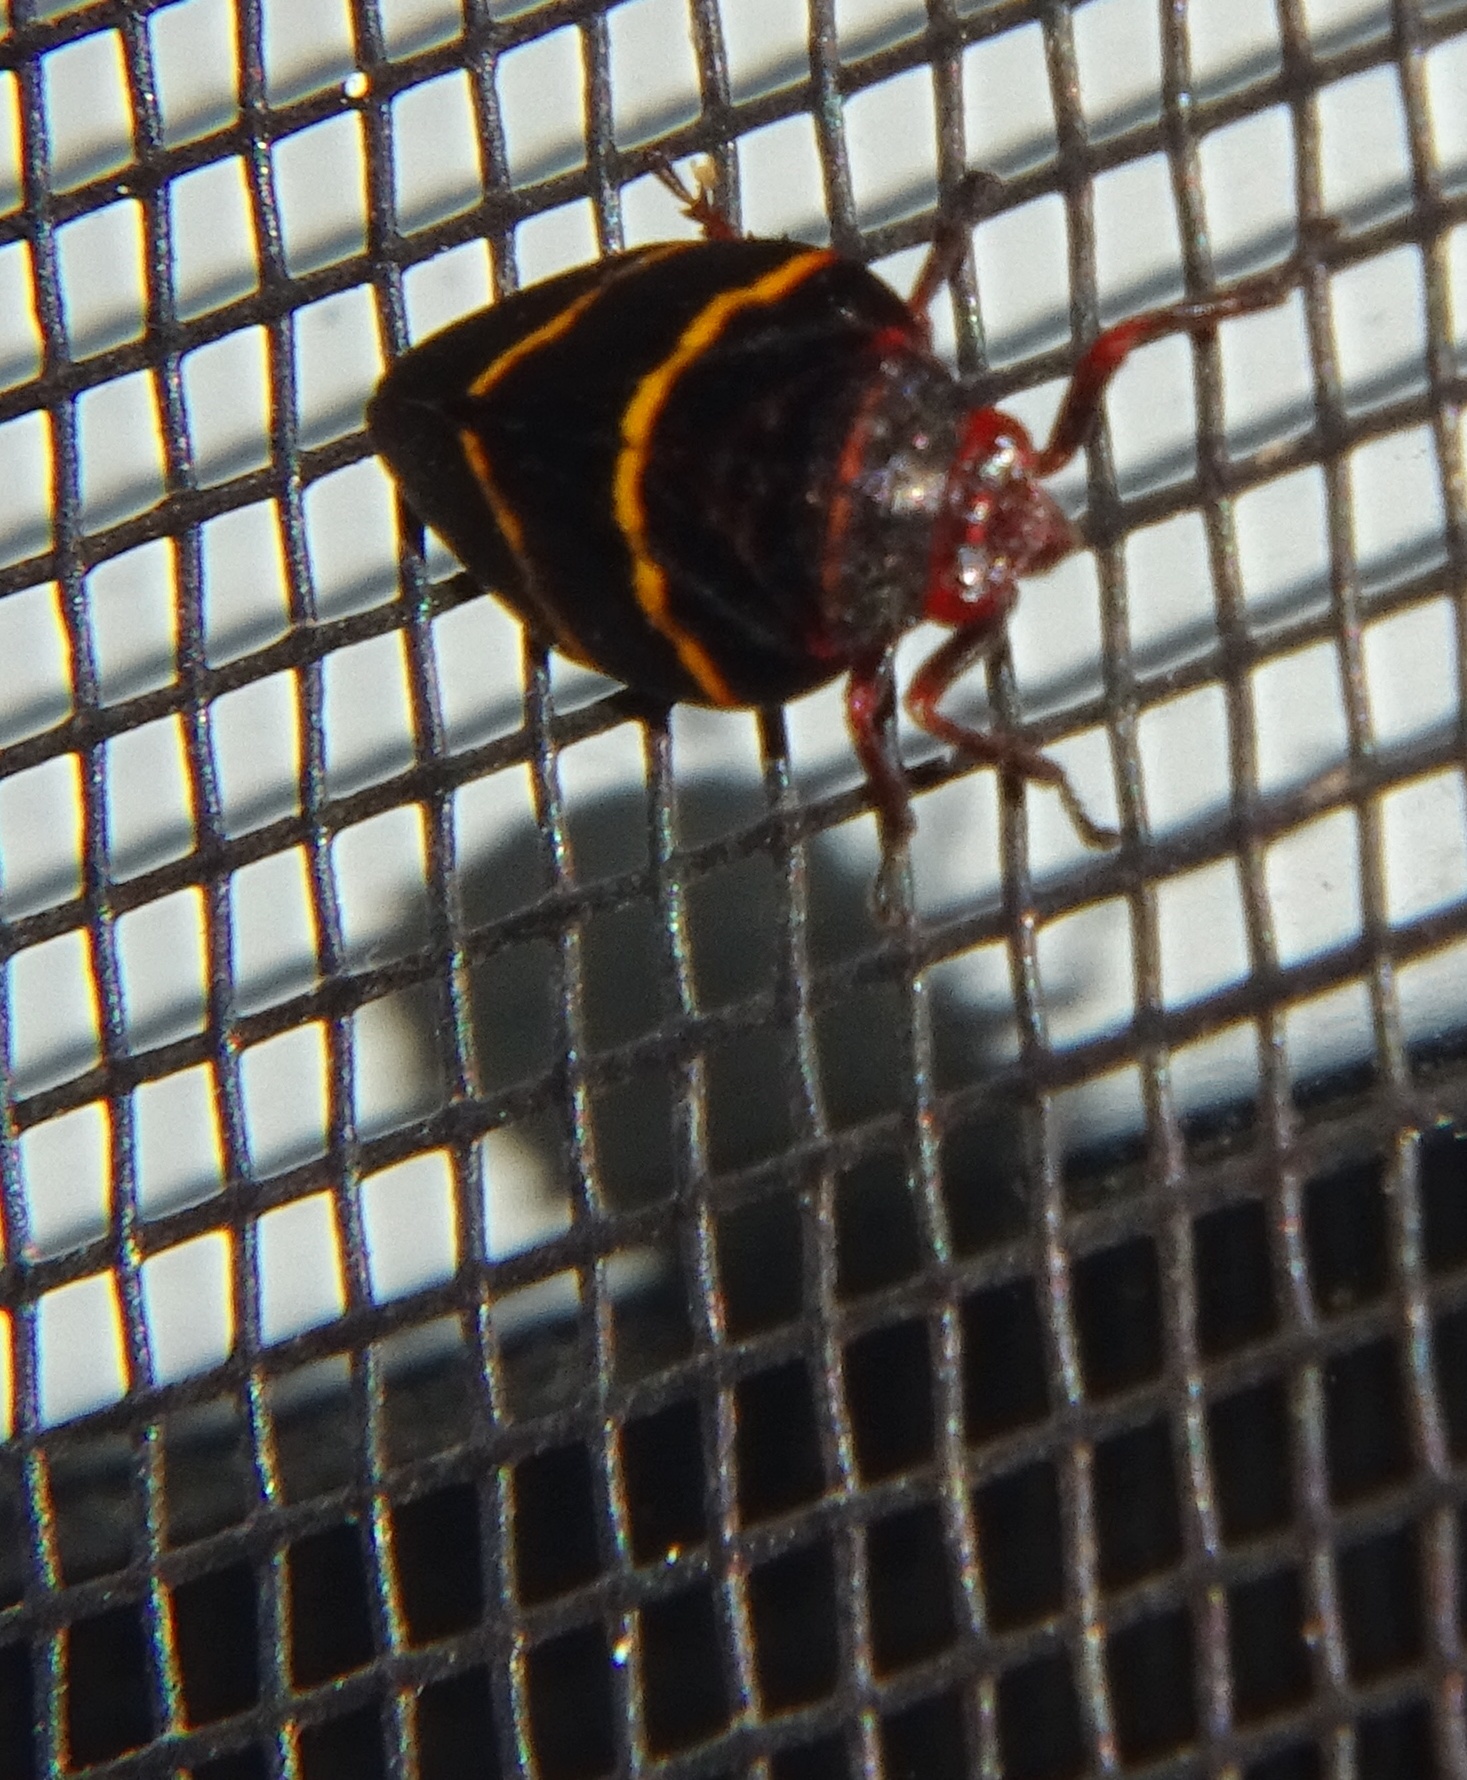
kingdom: Animalia
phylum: Arthropoda
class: Insecta
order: Hemiptera
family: Cercopidae
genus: Prosapia
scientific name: Prosapia bicincta
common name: Twolined spittlebug
